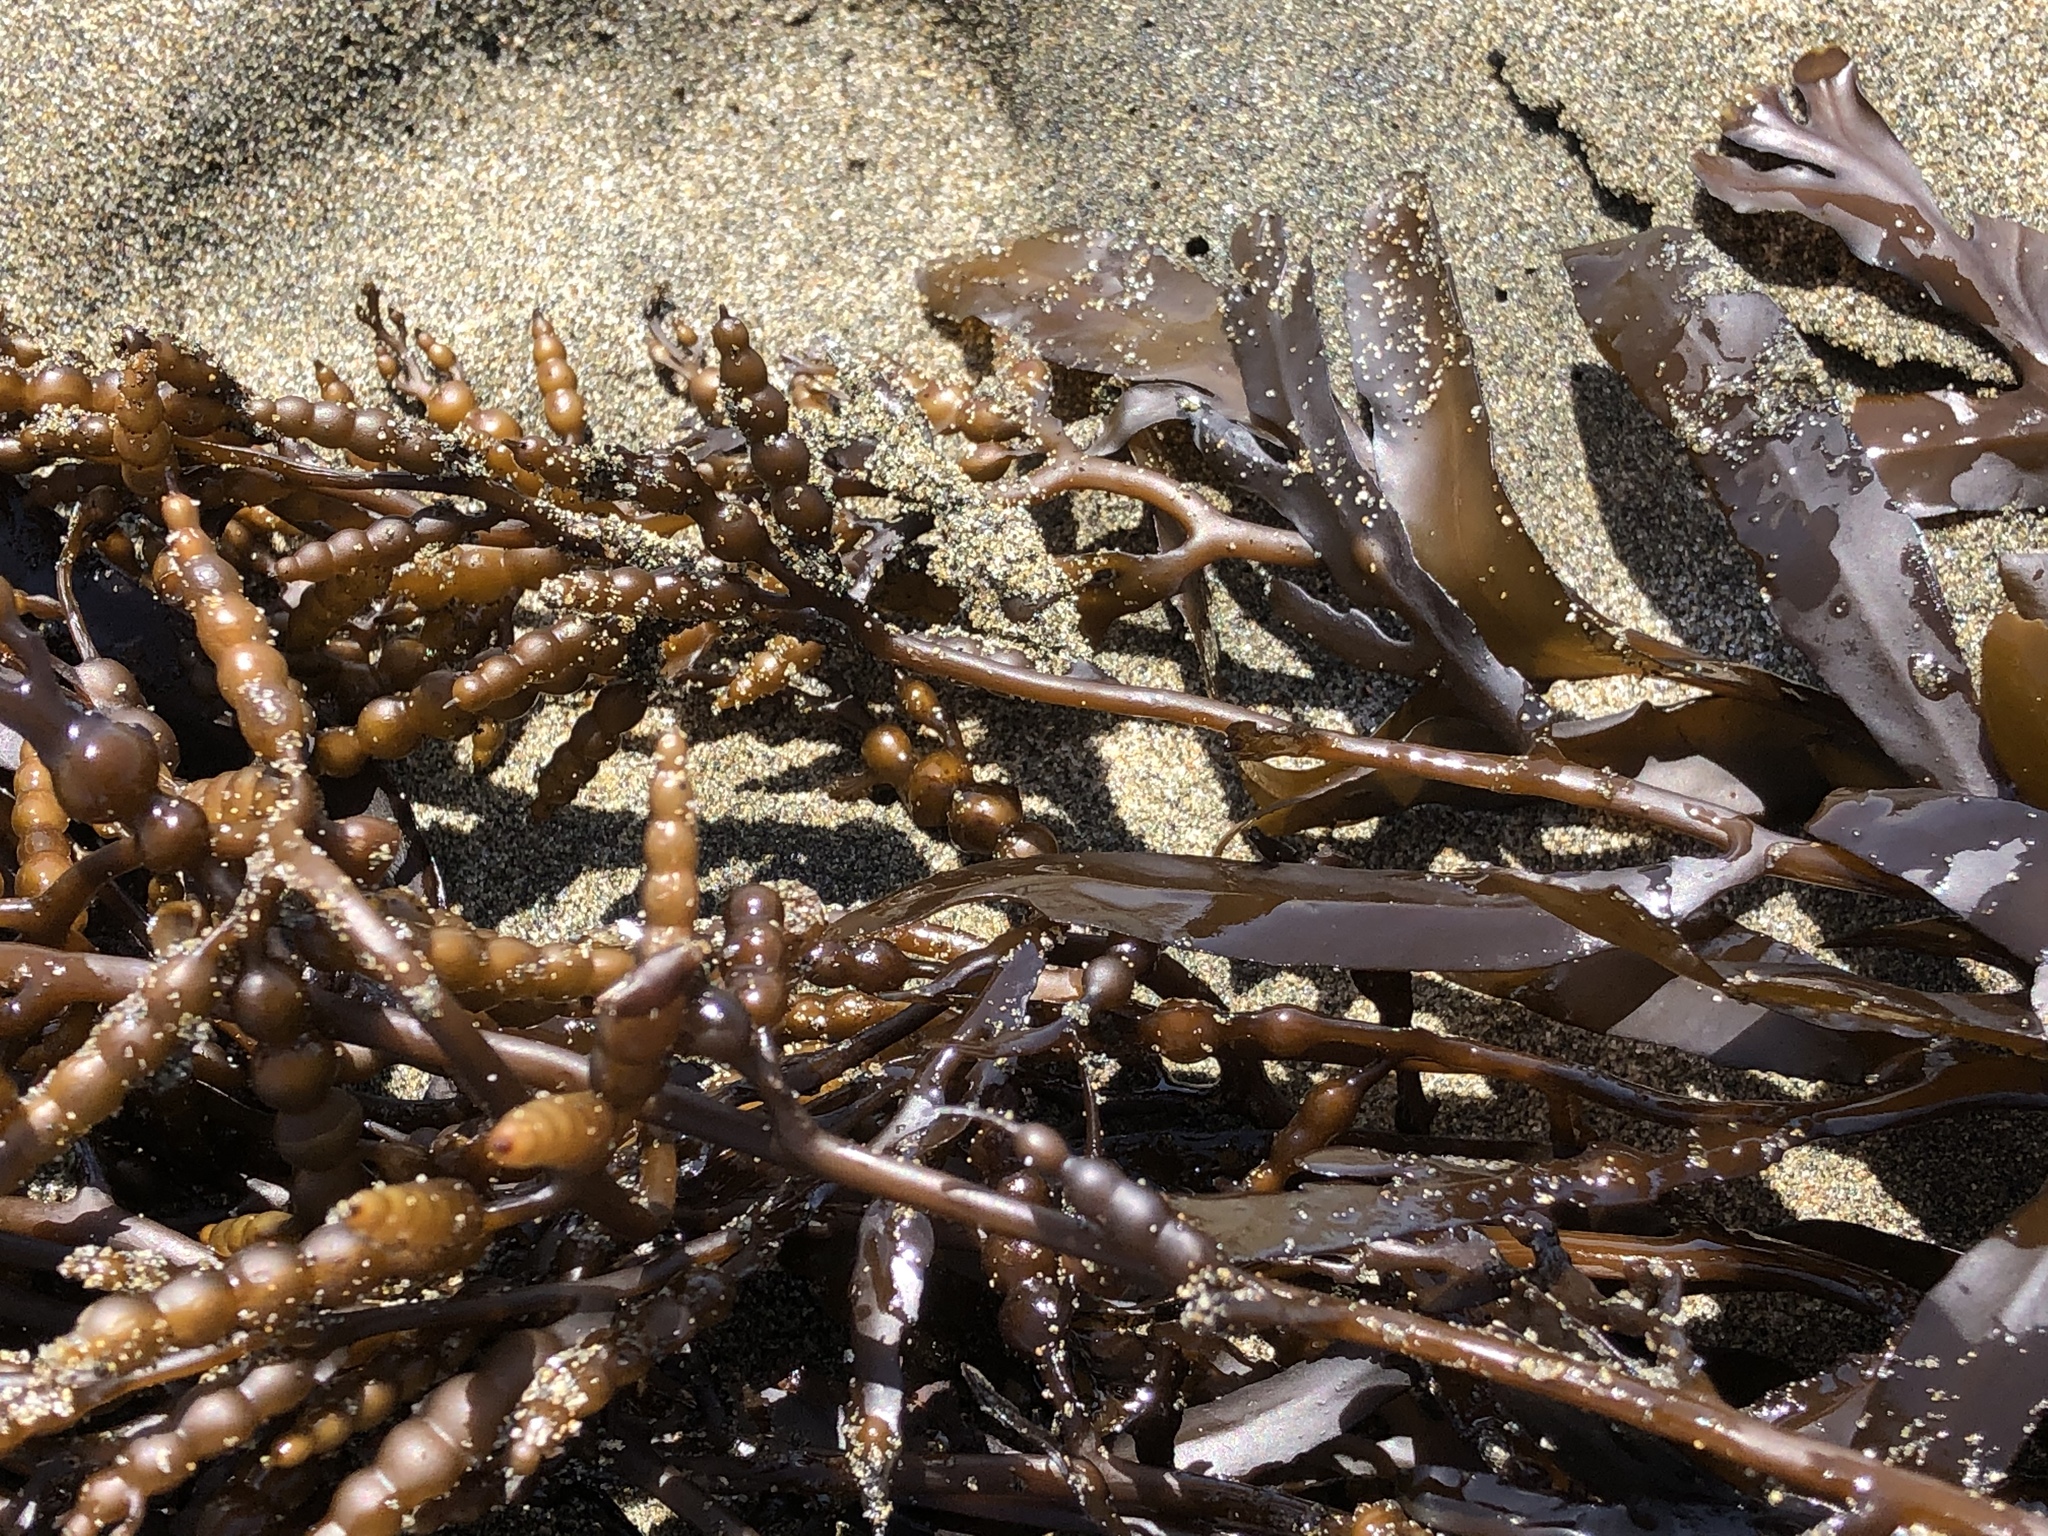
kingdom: Chromista
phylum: Ochrophyta
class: Phaeophyceae
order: Fucales
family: Sargassaceae
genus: Stephanocystis
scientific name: Stephanocystis
